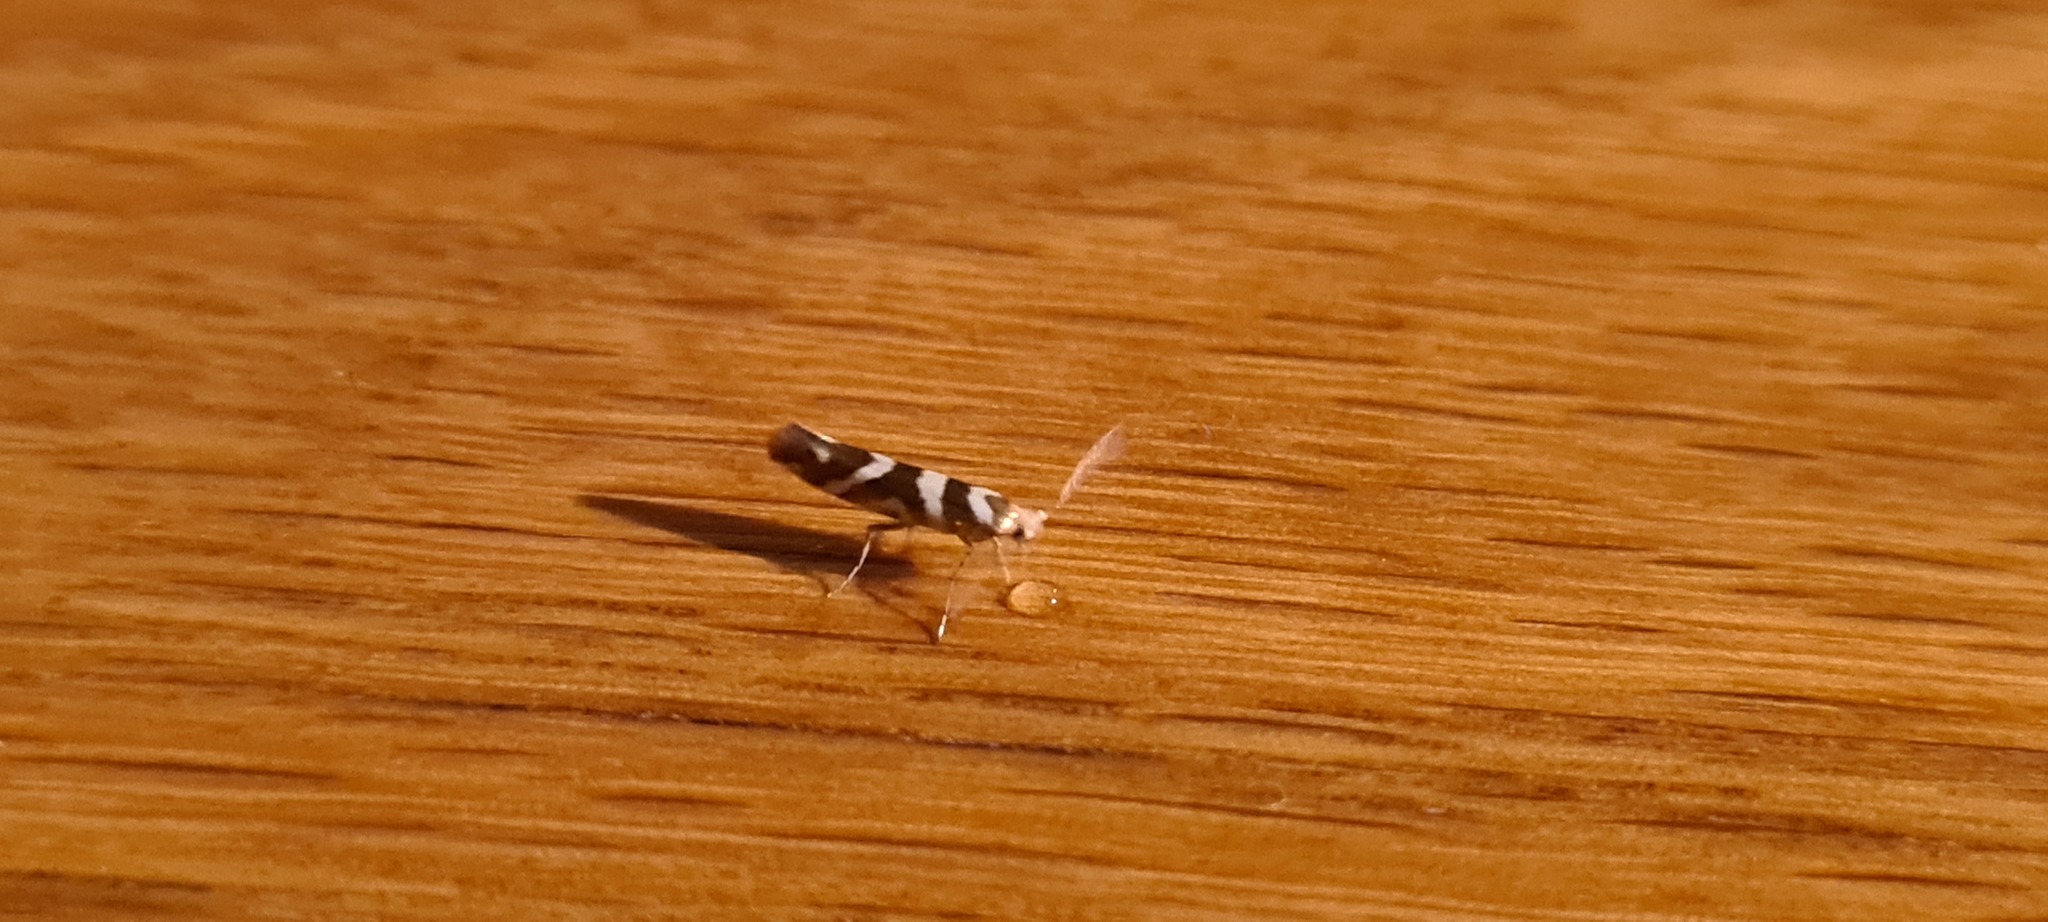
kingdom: Animalia
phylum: Arthropoda
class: Insecta
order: Lepidoptera
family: Argyresthiidae
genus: Argyresthia
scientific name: Argyresthia goedartella
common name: Golden argent
